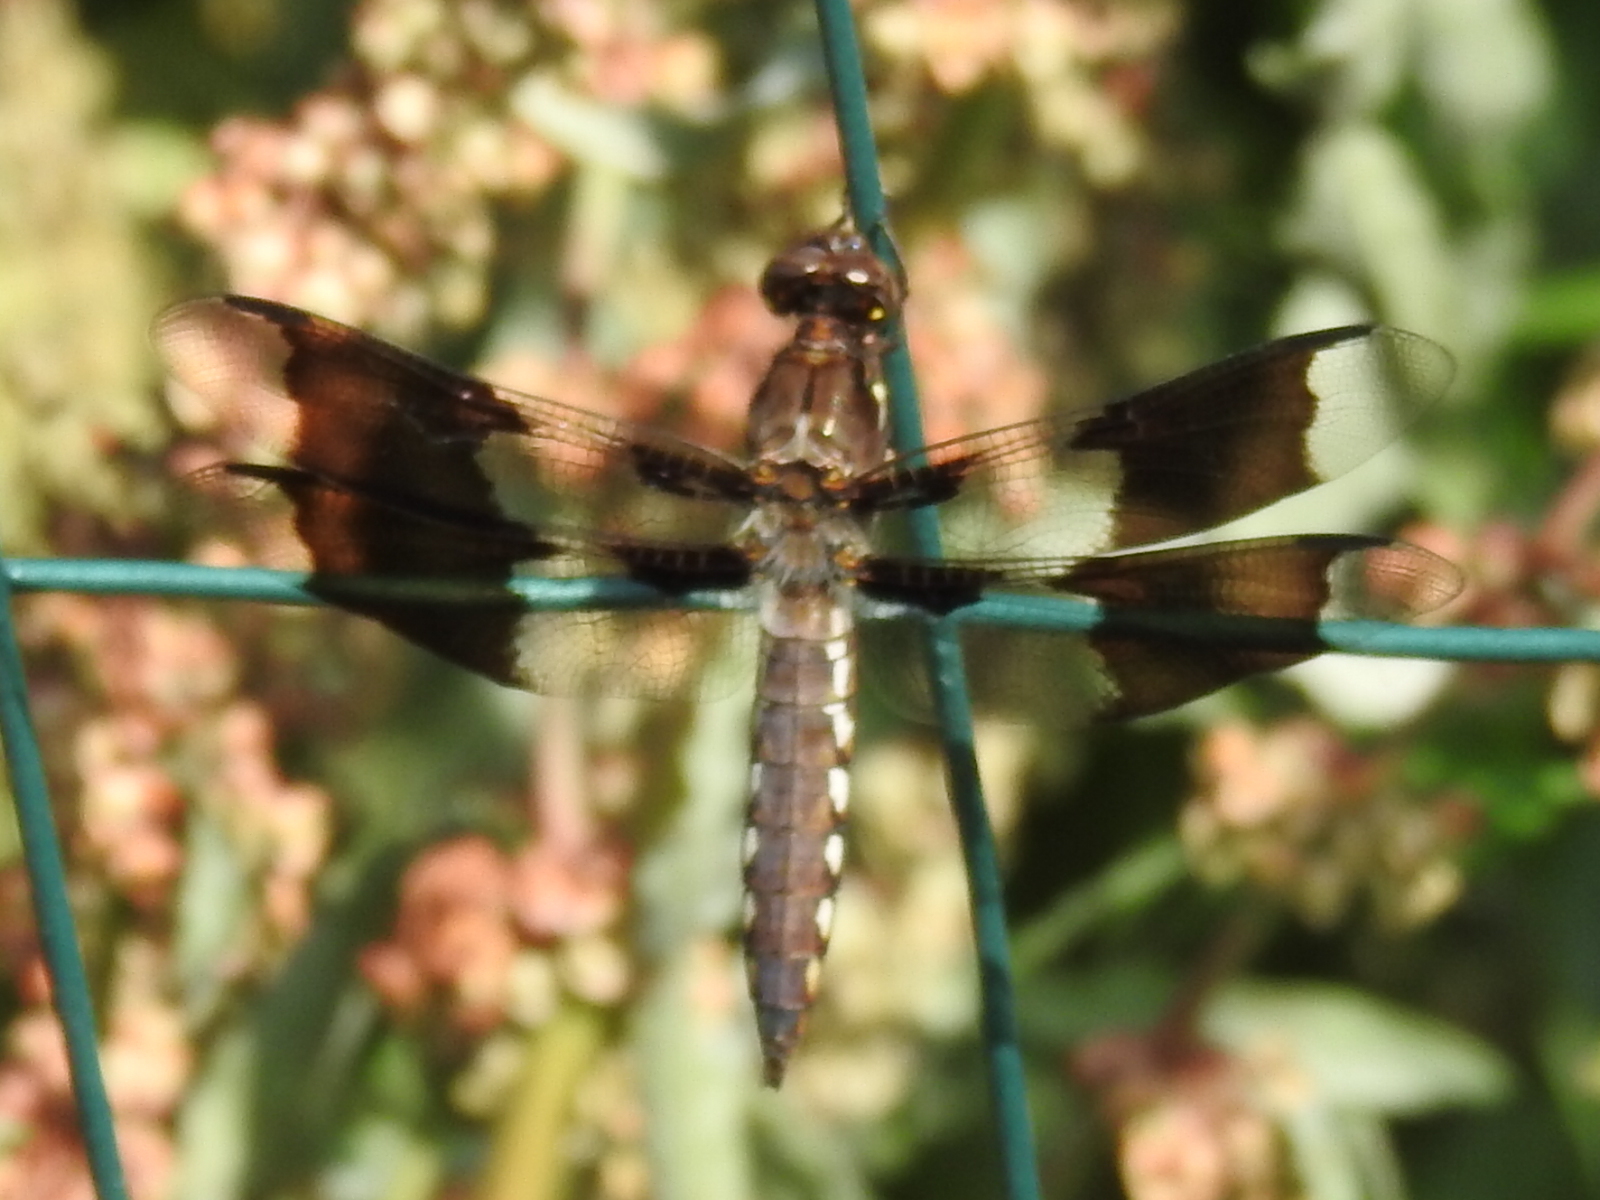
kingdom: Animalia
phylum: Arthropoda
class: Insecta
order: Odonata
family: Libellulidae
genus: Plathemis
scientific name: Plathemis lydia
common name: Common whitetail
